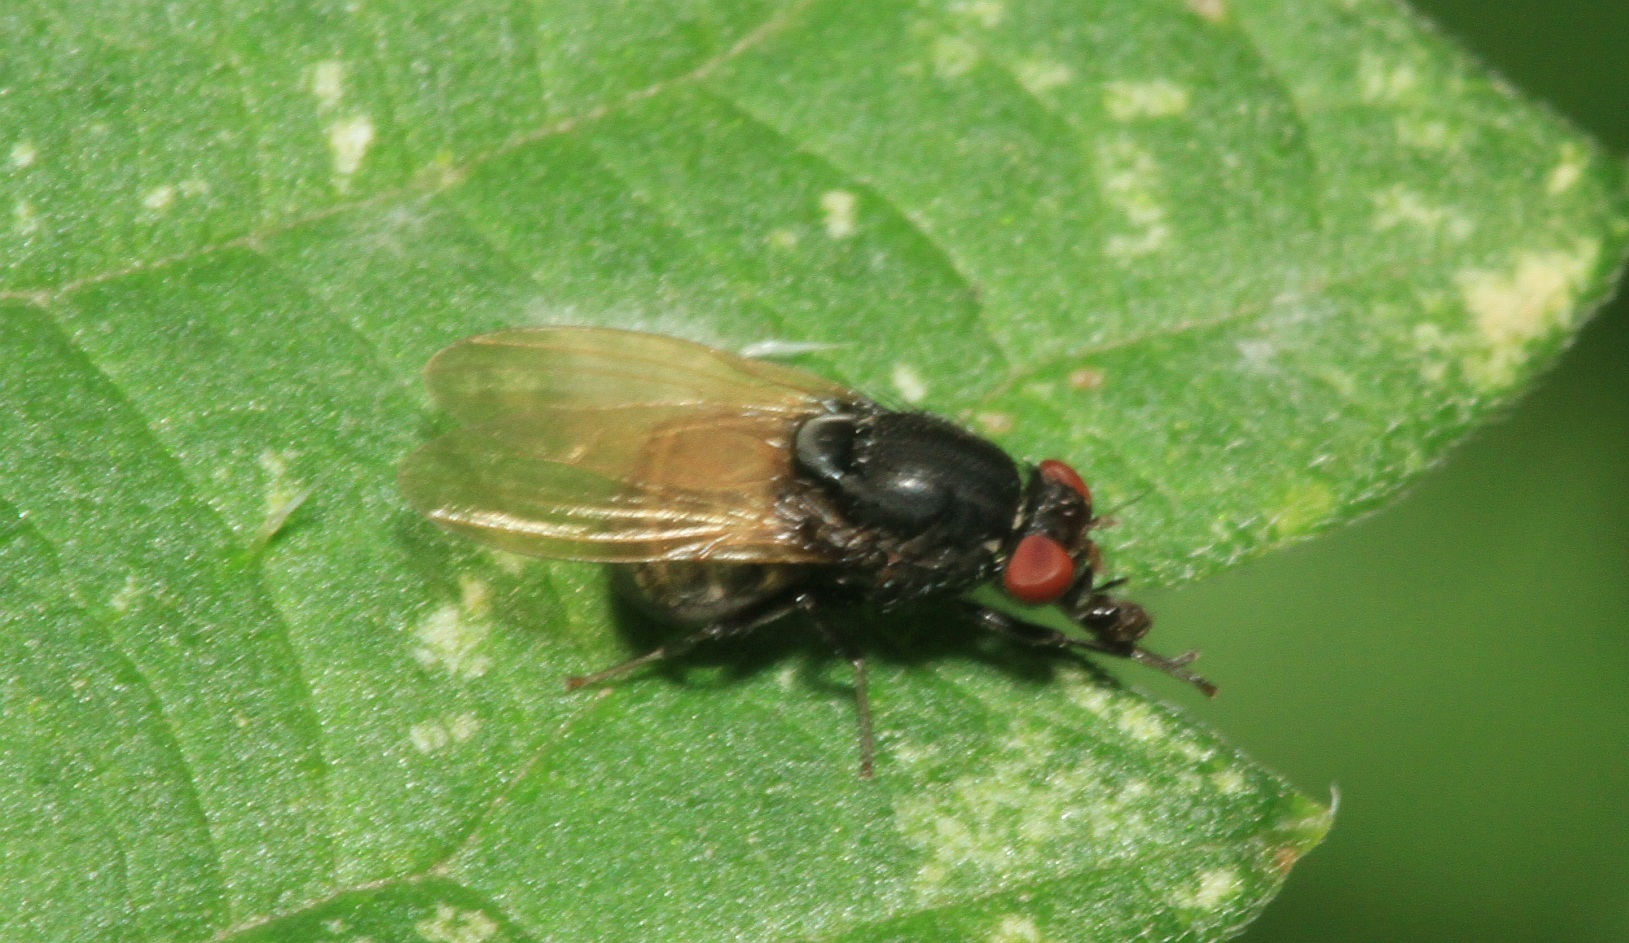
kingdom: Animalia
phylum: Arthropoda
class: Insecta
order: Diptera
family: Lauxaniidae
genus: Minettia
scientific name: Minettia longipennis
